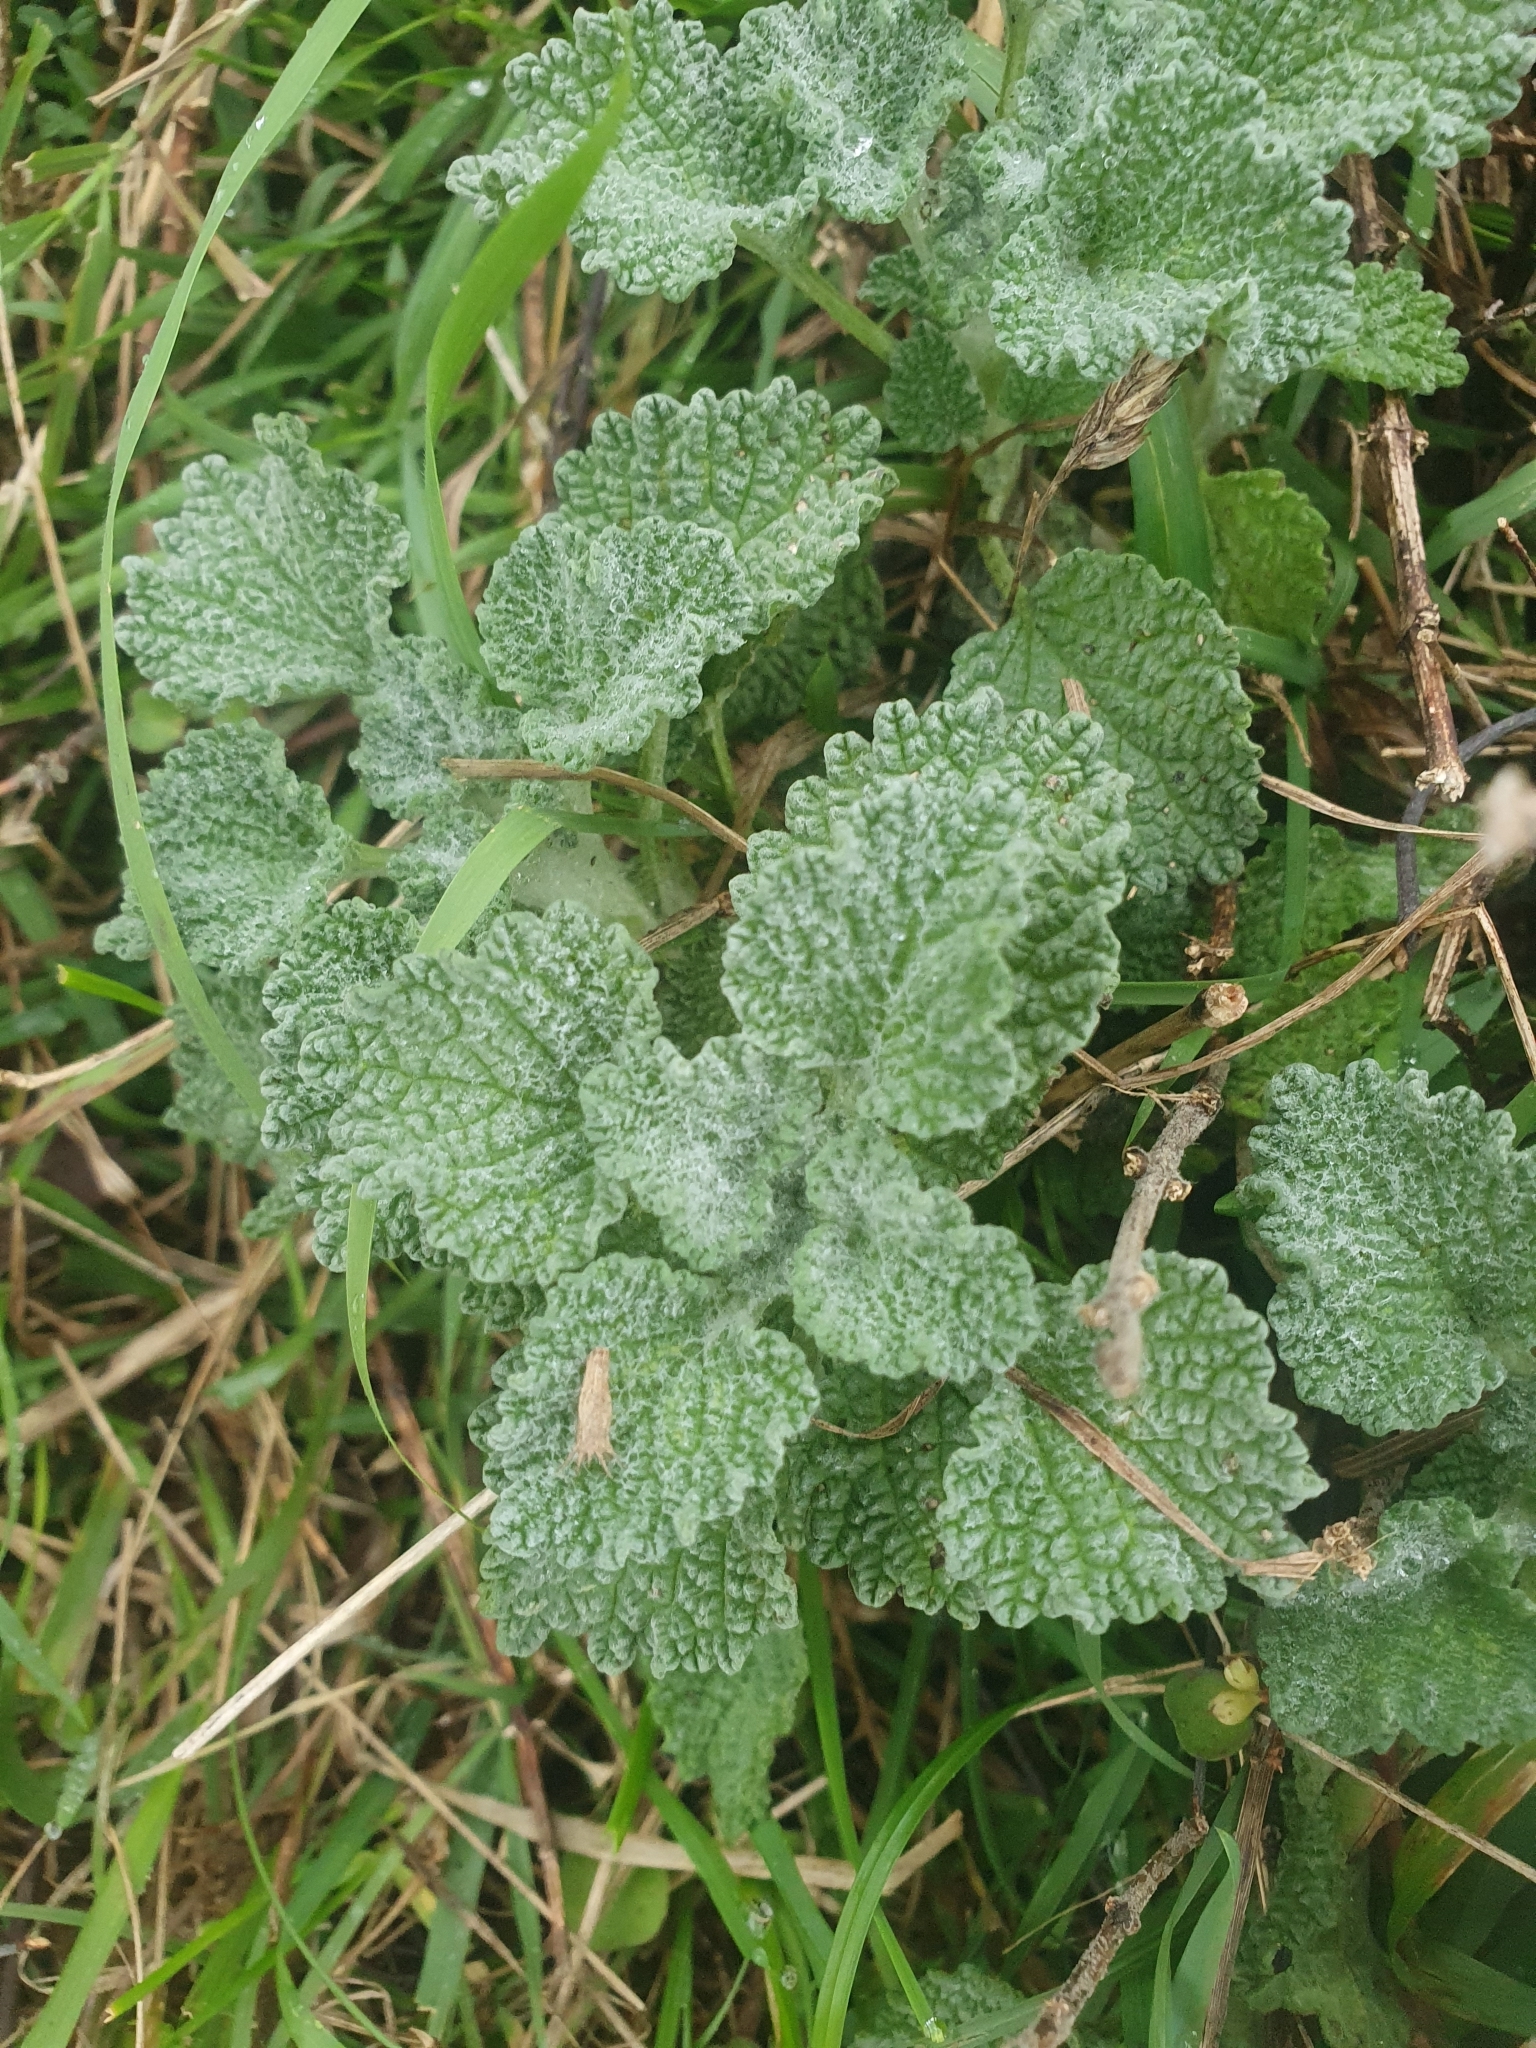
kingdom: Plantae
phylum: Tracheophyta
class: Magnoliopsida
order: Lamiales
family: Lamiaceae
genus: Marrubium
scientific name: Marrubium vulgare
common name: Horehound
